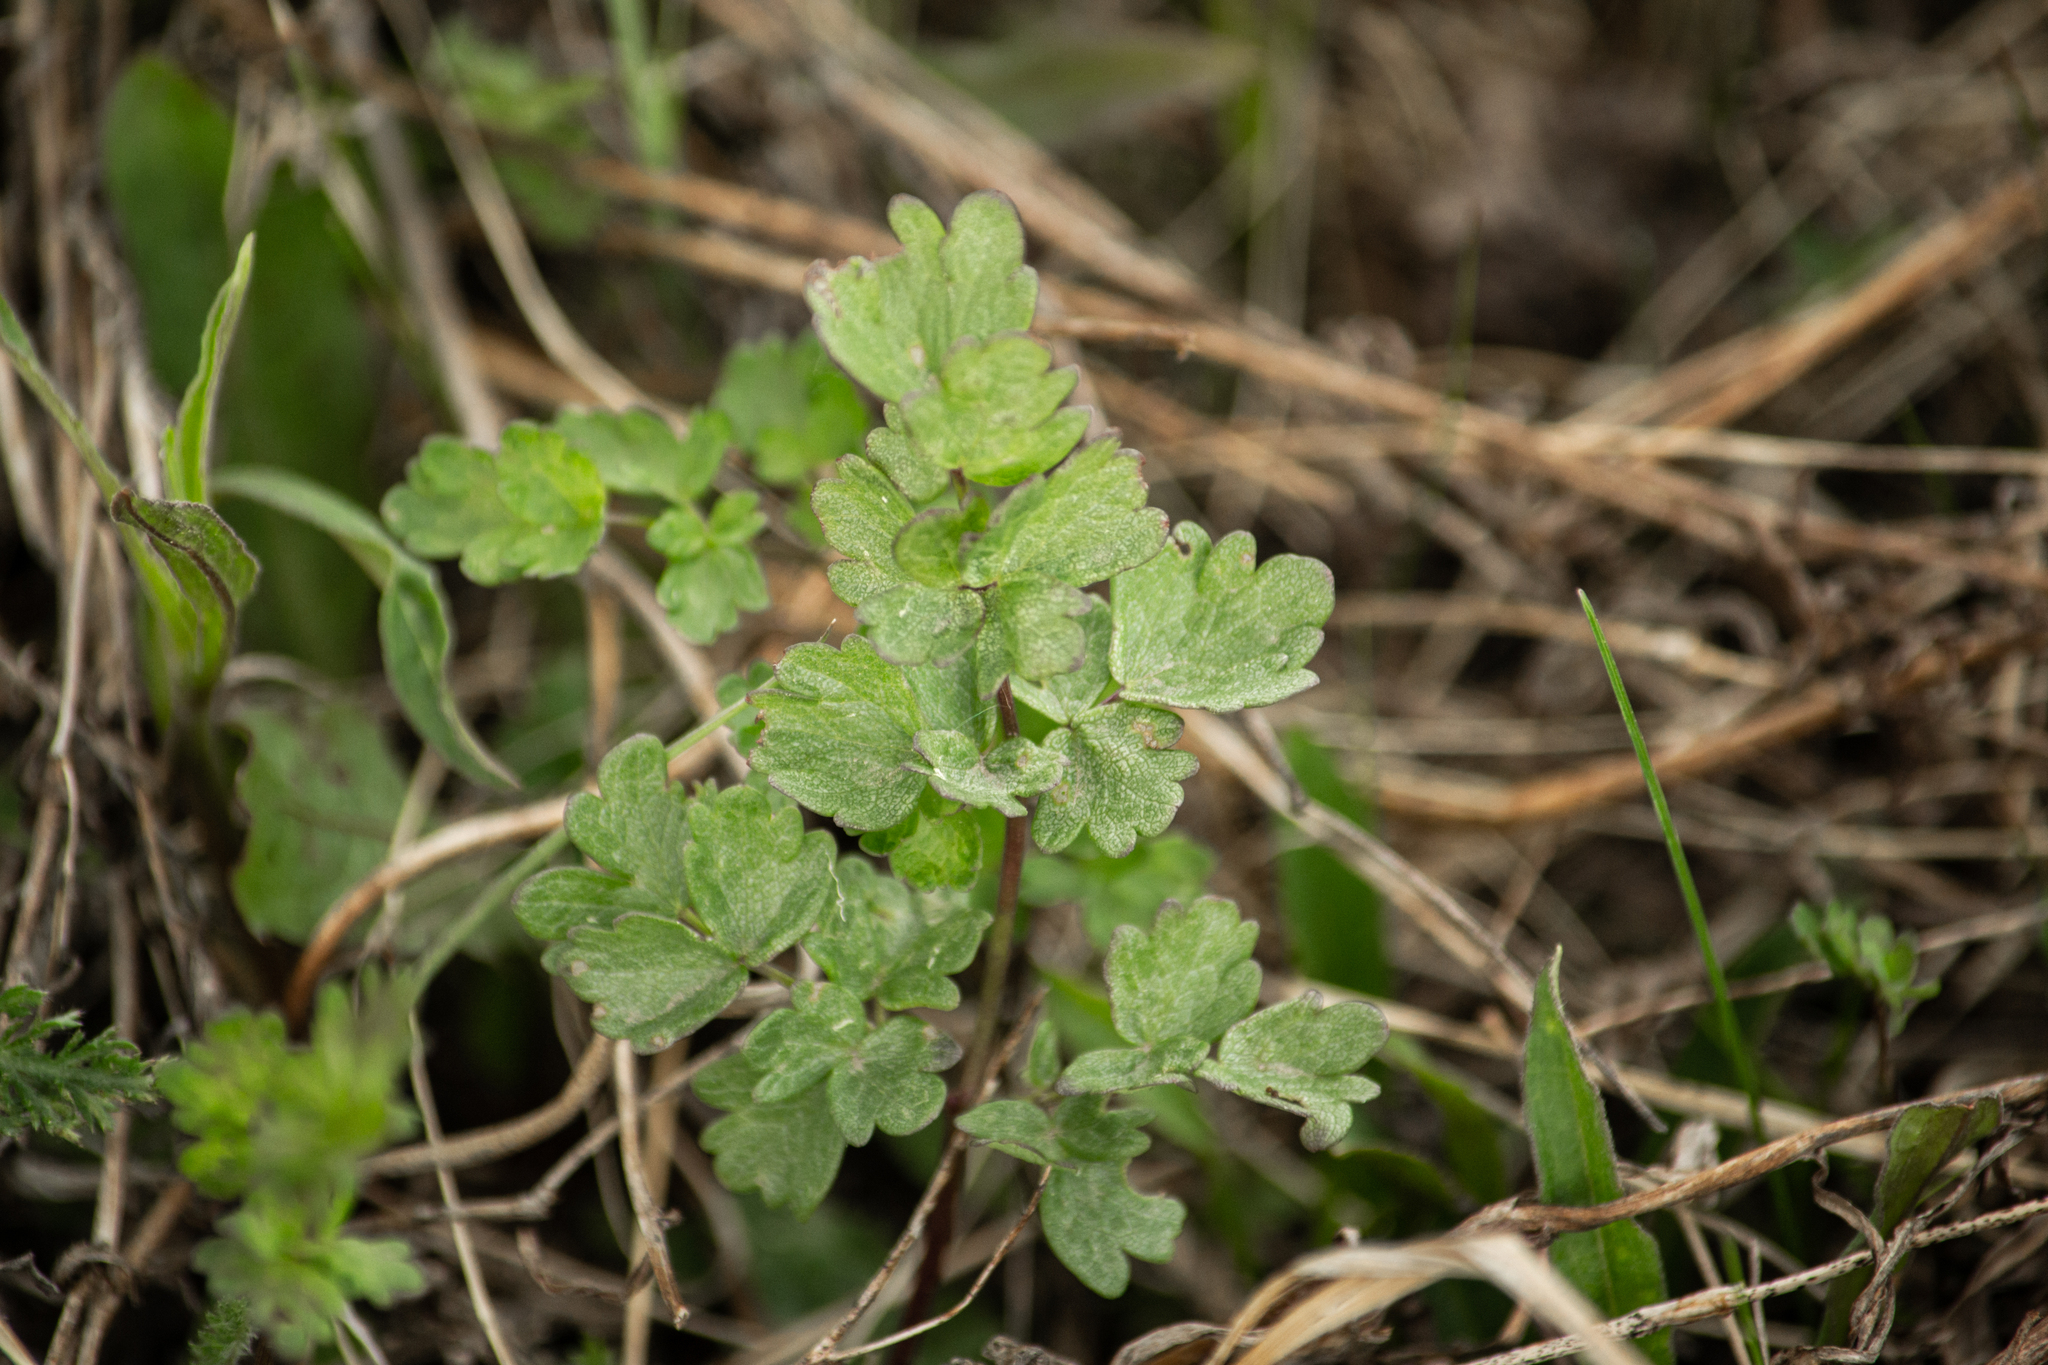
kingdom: Plantae
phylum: Tracheophyta
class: Magnoliopsida
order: Ranunculales
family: Ranunculaceae
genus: Thalictrum
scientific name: Thalictrum minus
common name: Lesser meadow-rue
